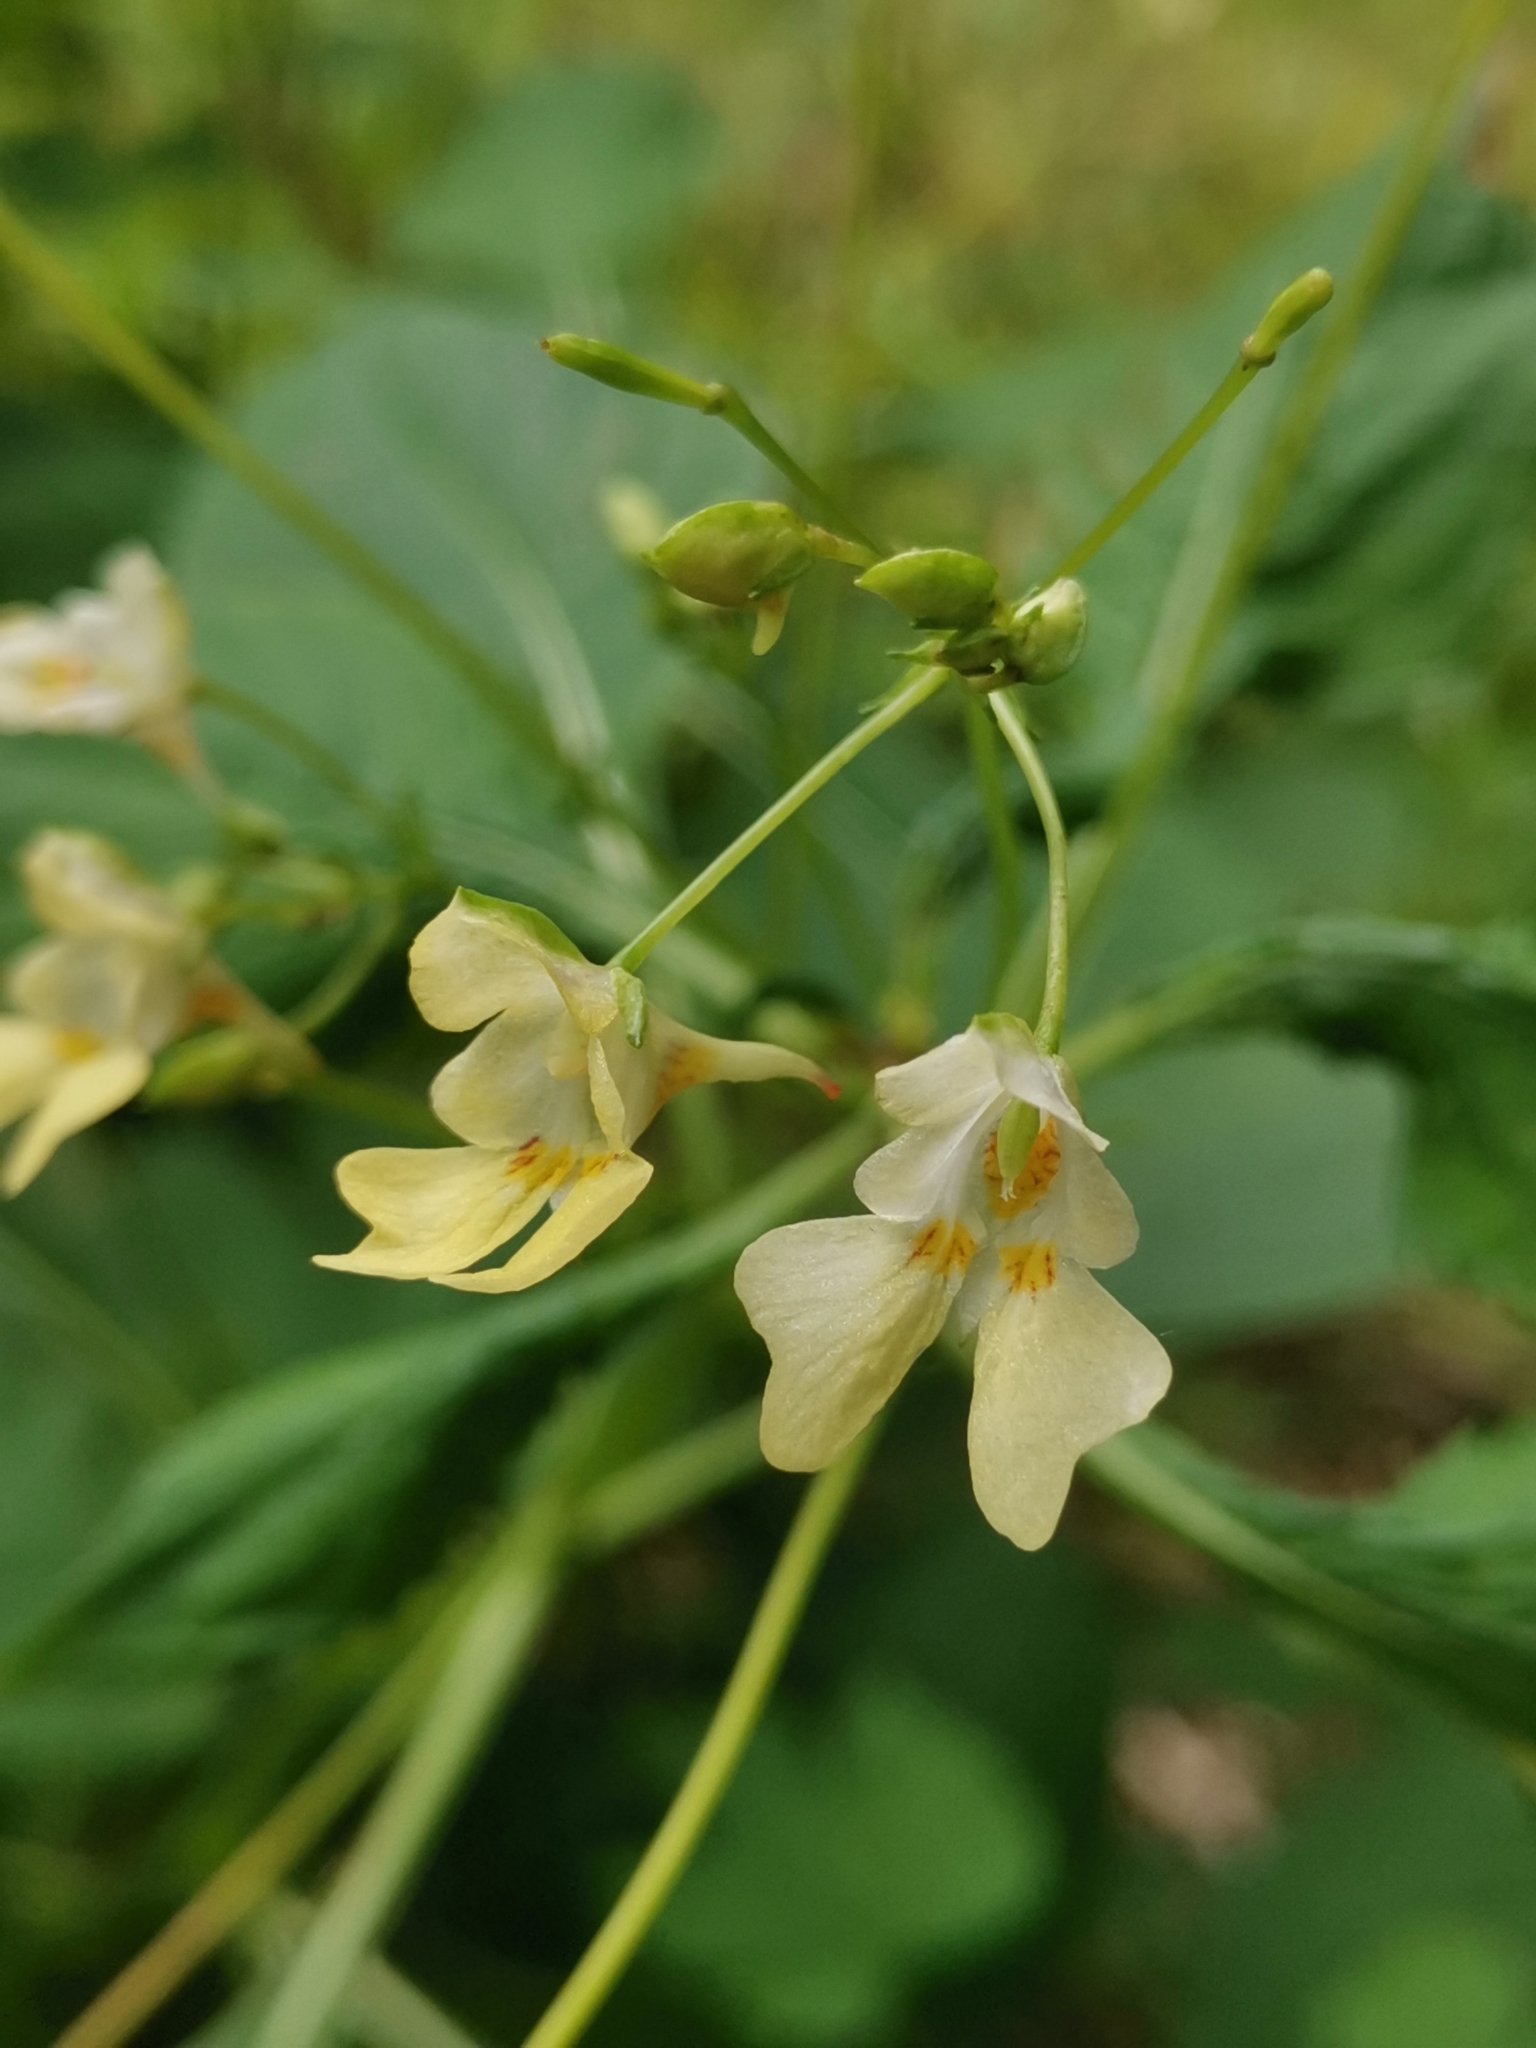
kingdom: Plantae
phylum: Tracheophyta
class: Magnoliopsida
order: Ericales
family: Balsaminaceae
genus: Impatiens
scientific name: Impatiens parviflora
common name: Small balsam
